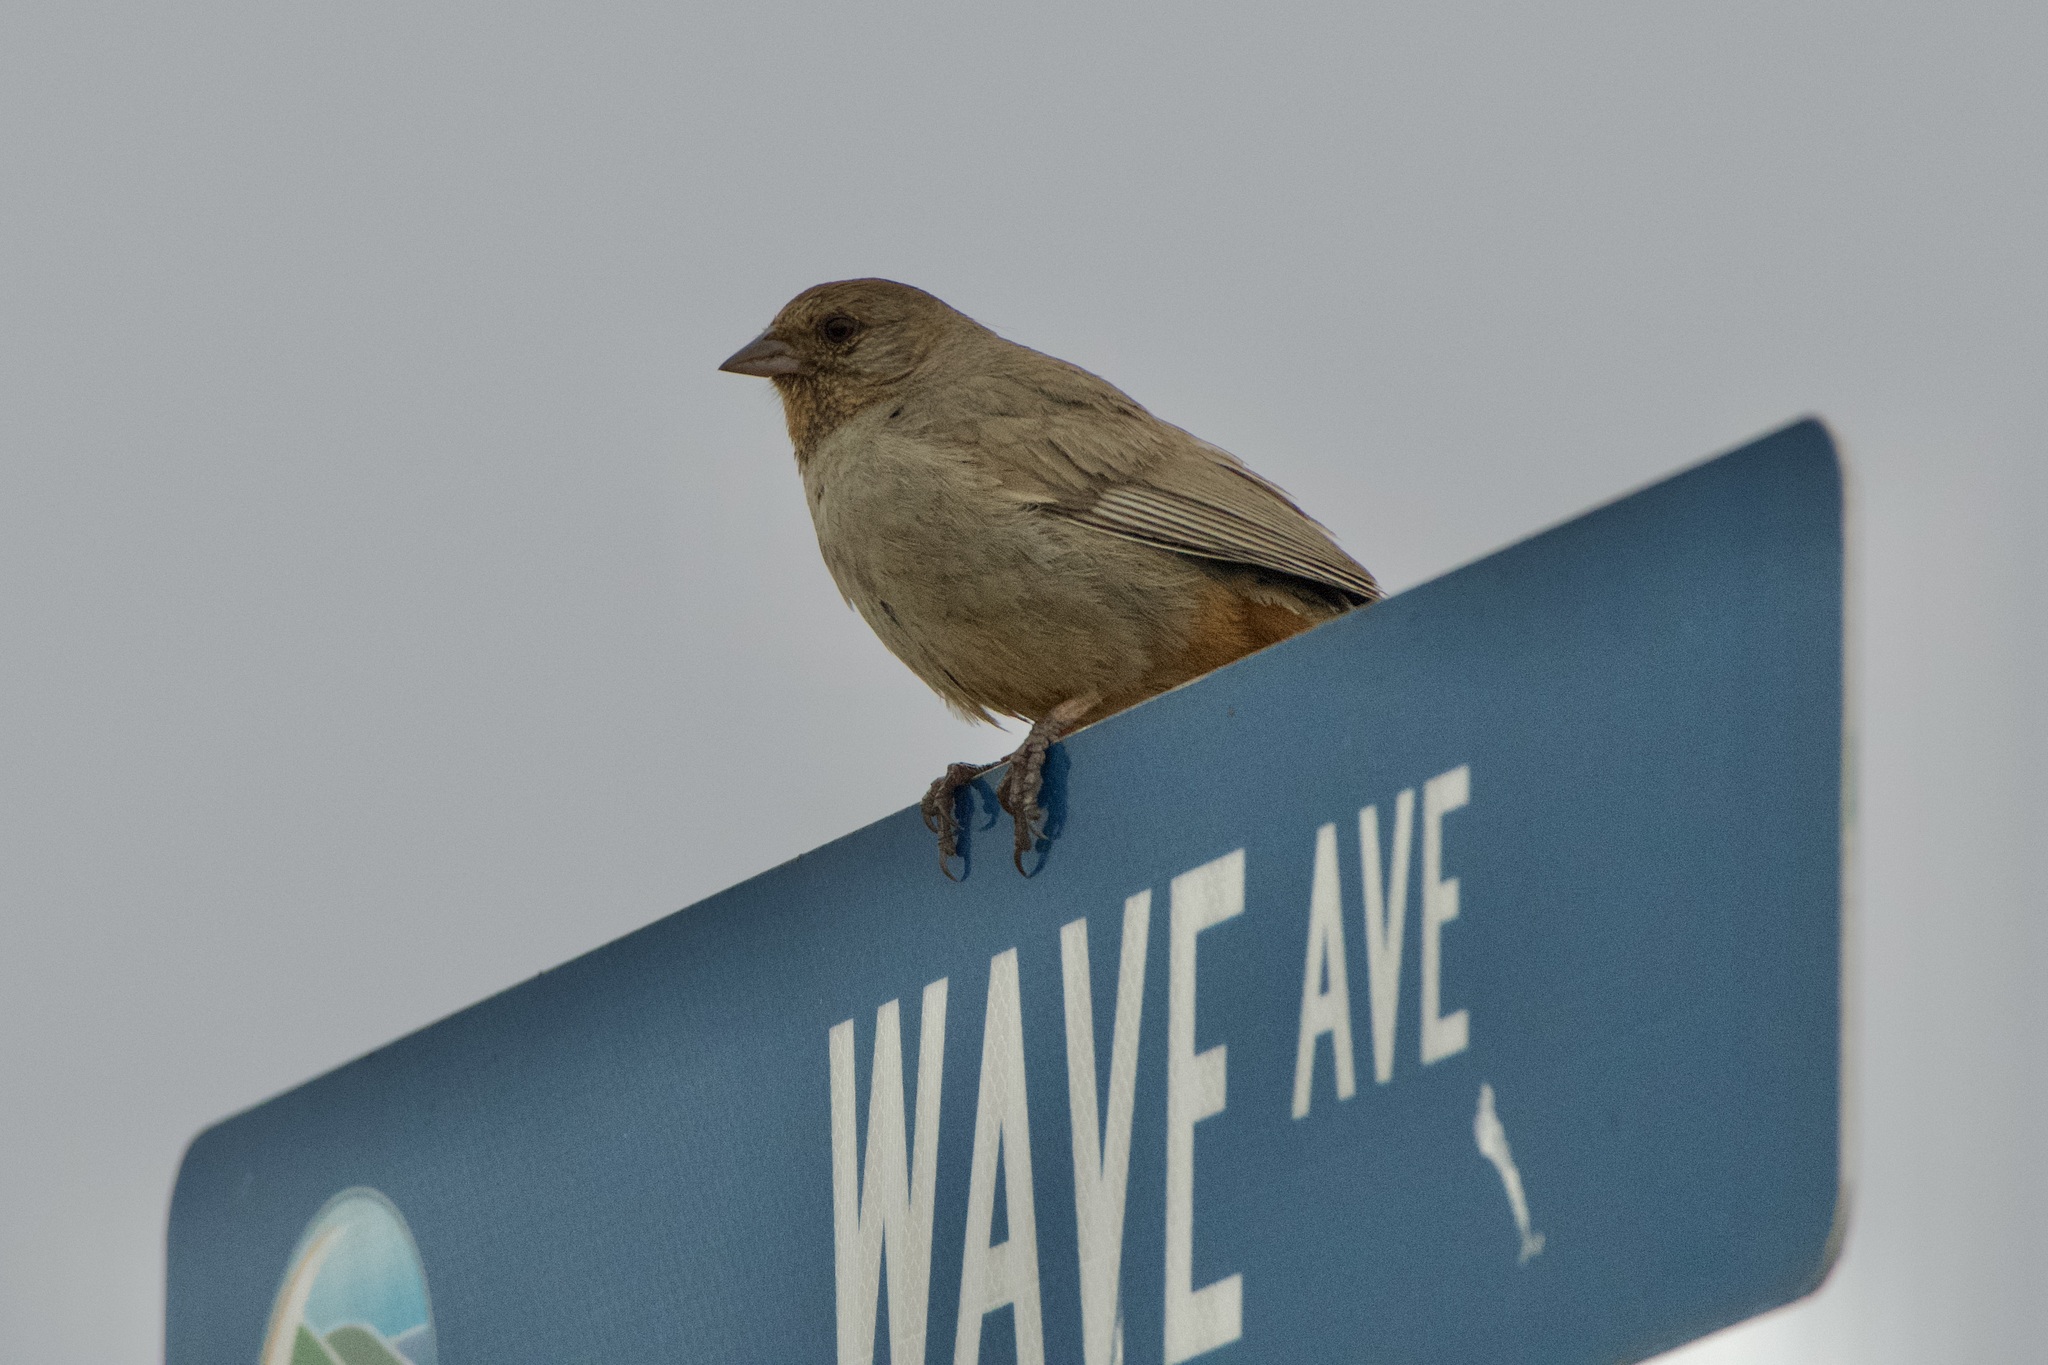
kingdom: Animalia
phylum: Chordata
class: Aves
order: Passeriformes
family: Passerellidae
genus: Melozone
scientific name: Melozone crissalis
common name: California towhee
